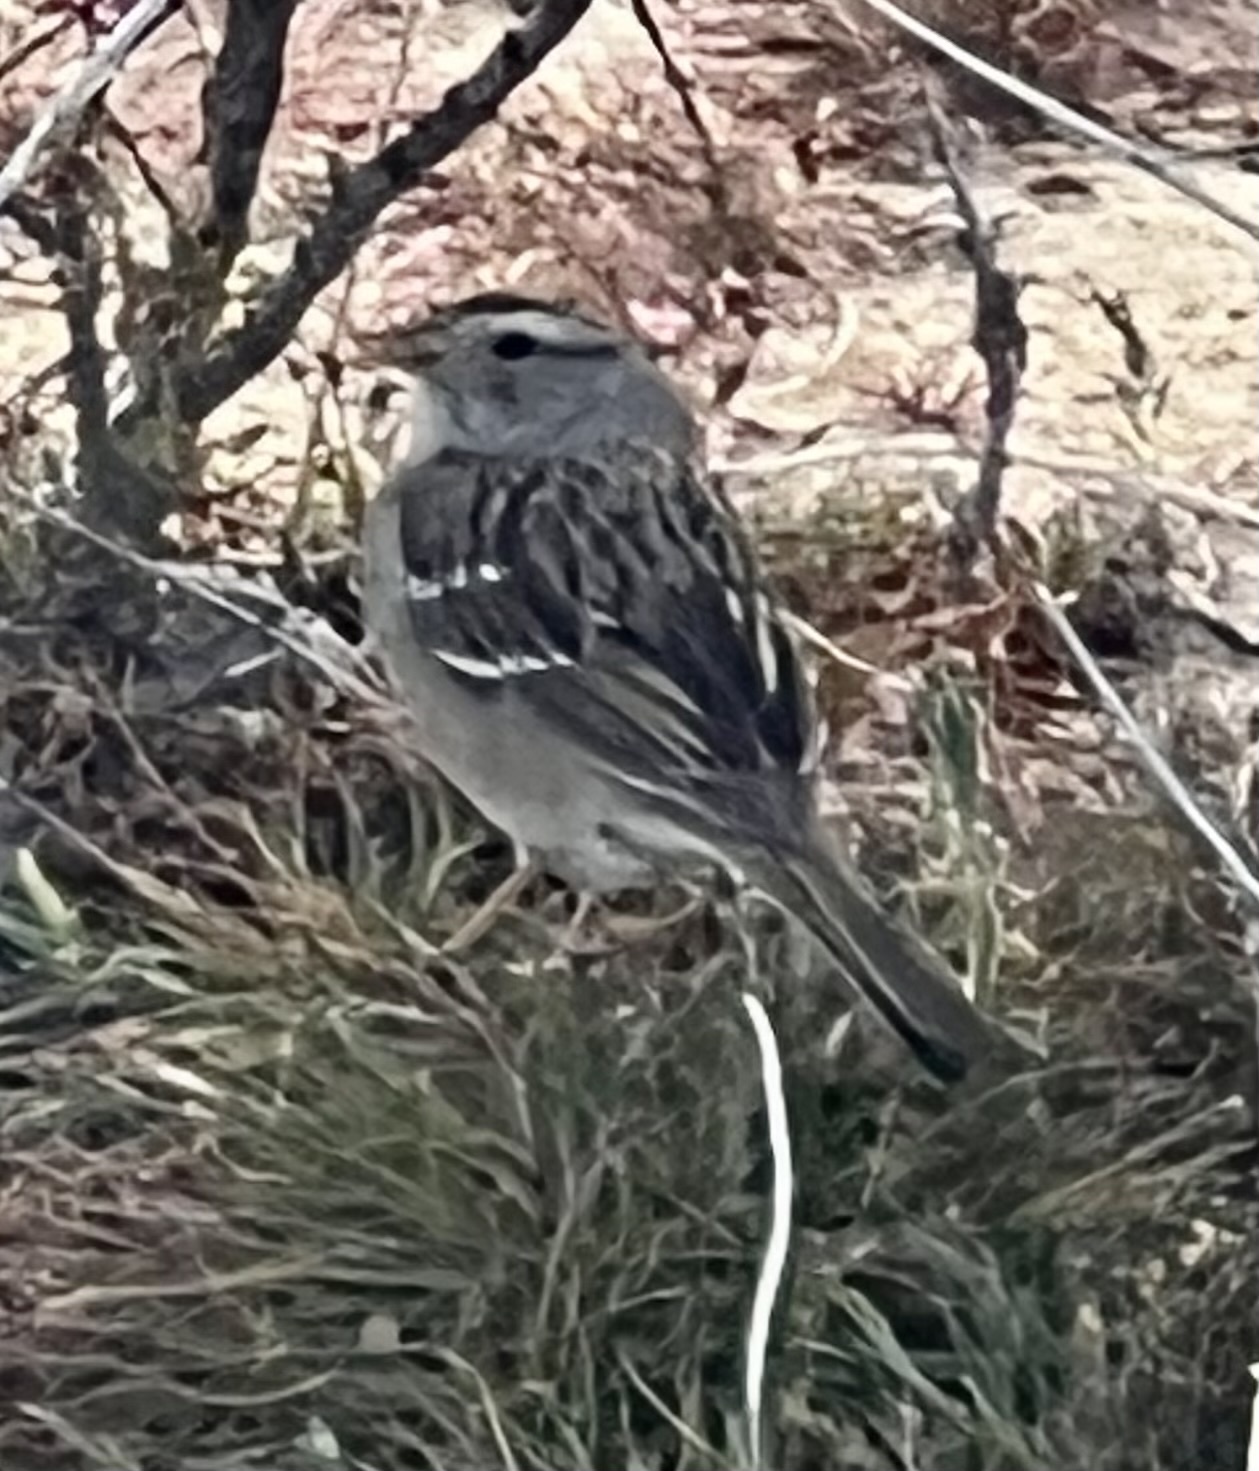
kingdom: Animalia
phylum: Chordata
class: Aves
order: Passeriformes
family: Passerellidae
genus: Zonotrichia
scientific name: Zonotrichia leucophrys
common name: White-crowned sparrow
